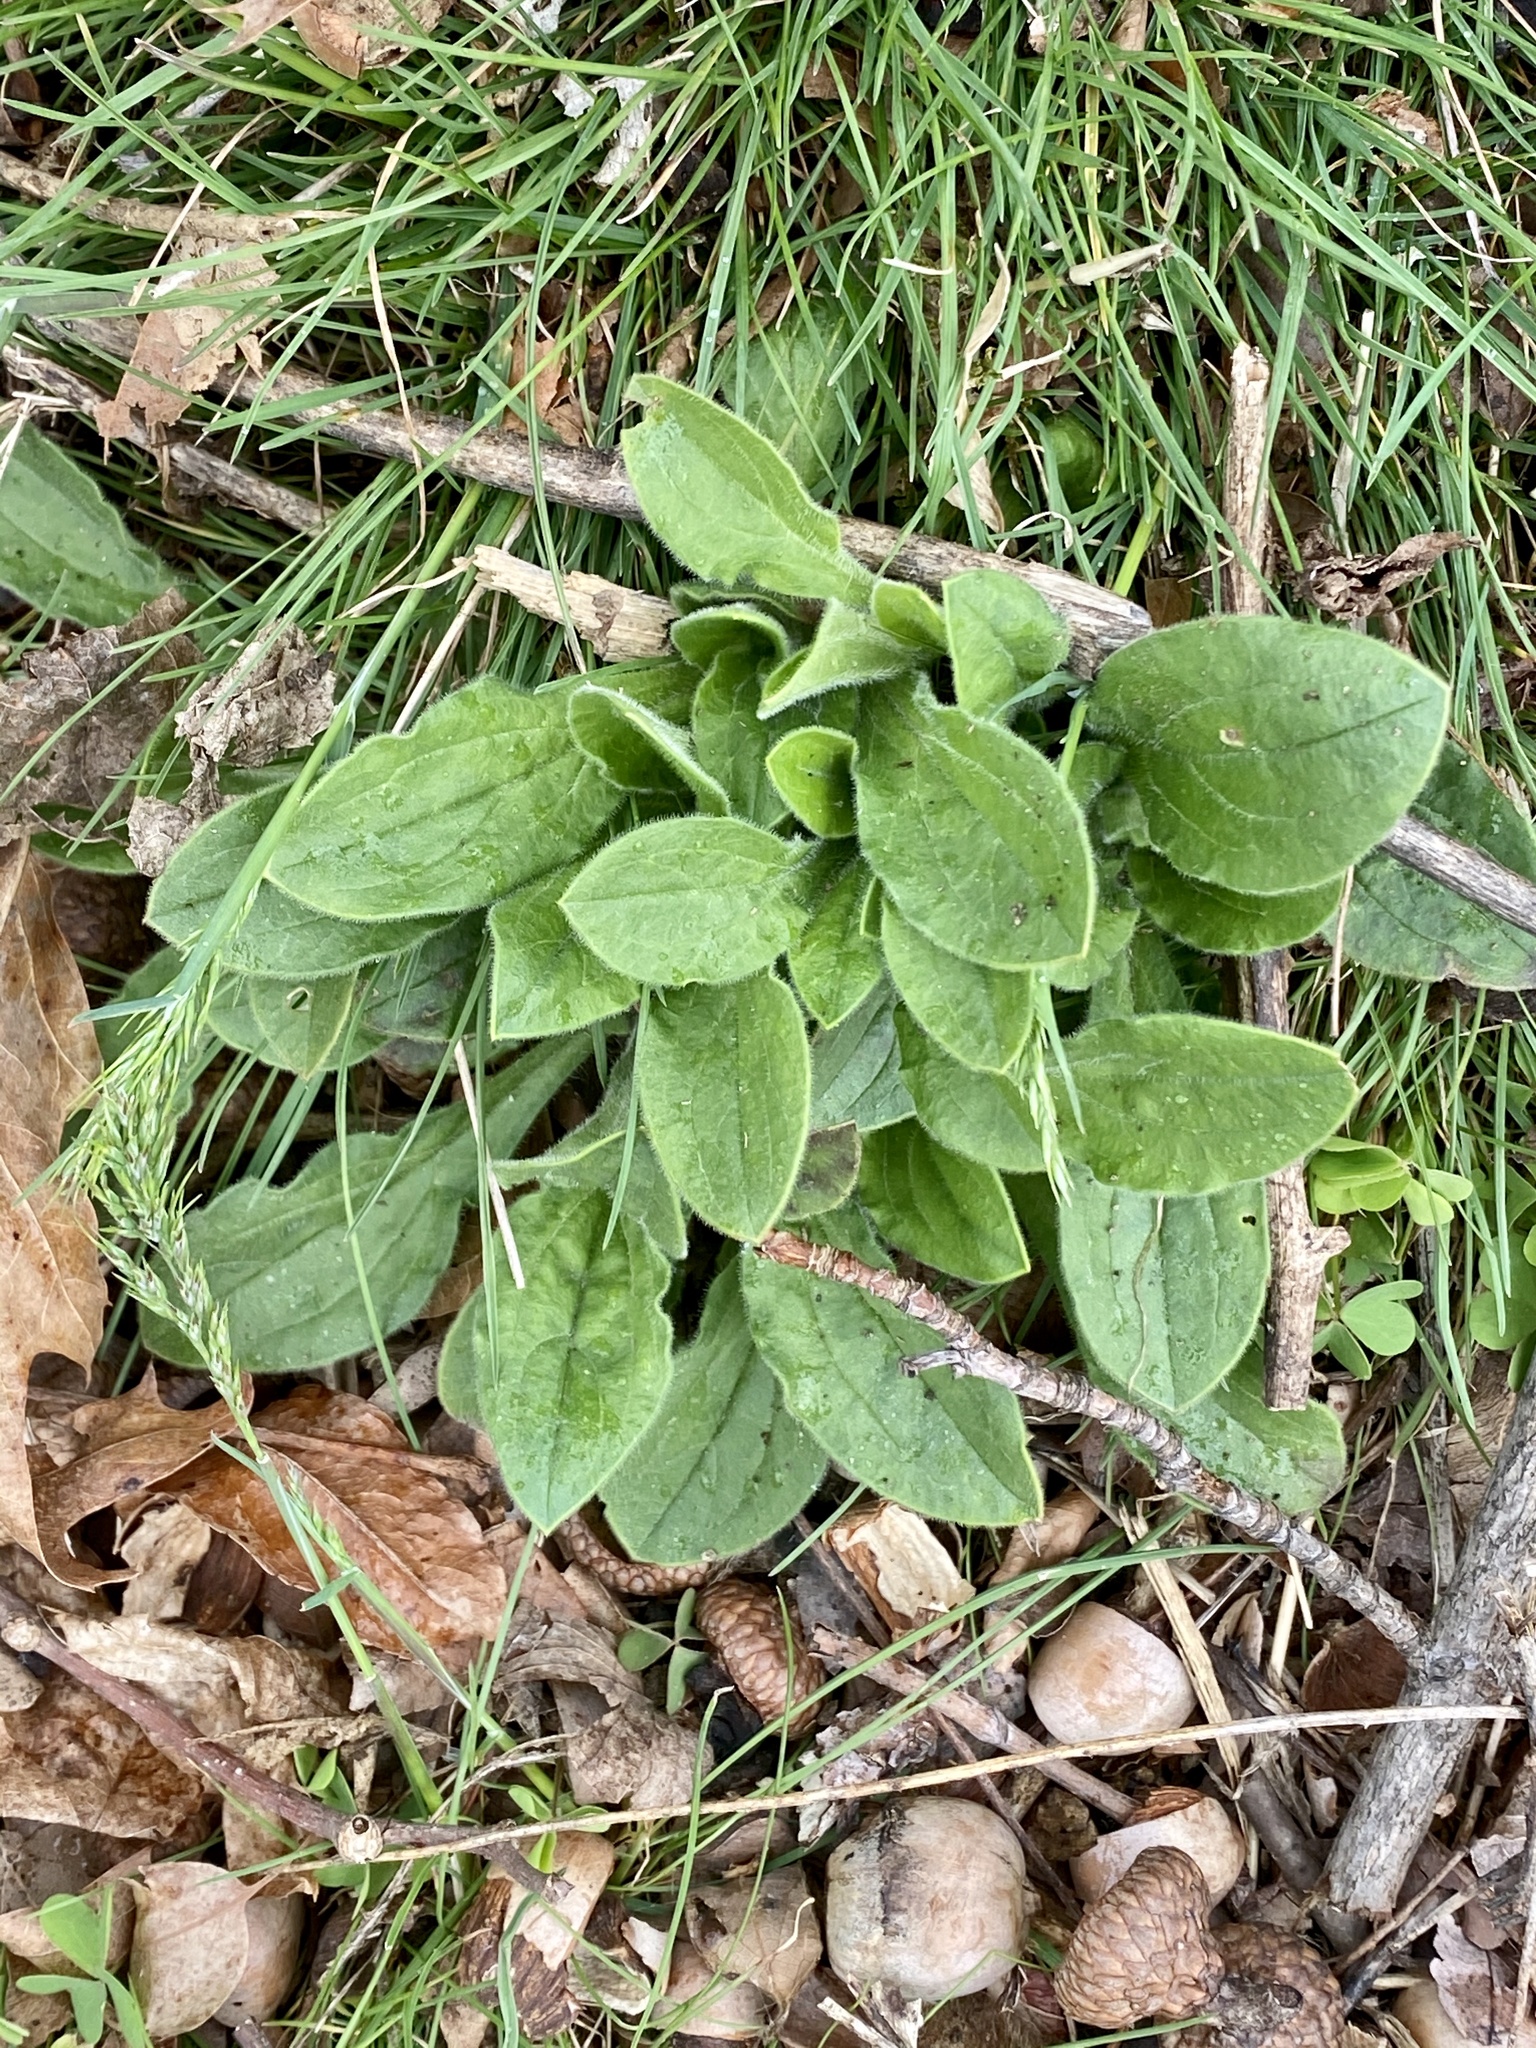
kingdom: Plantae
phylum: Tracheophyta
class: Magnoliopsida
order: Caryophyllales
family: Caryophyllaceae
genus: Silene
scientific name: Silene latifolia
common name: White campion
